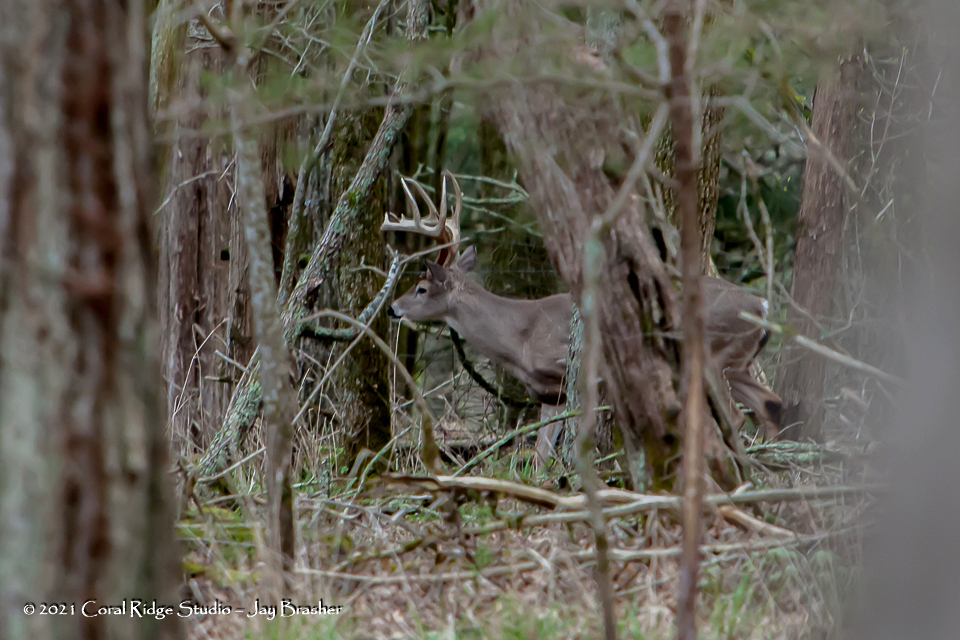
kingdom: Animalia
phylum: Chordata
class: Mammalia
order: Artiodactyla
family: Cervidae
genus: Odocoileus
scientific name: Odocoileus virginianus
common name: White-tailed deer
